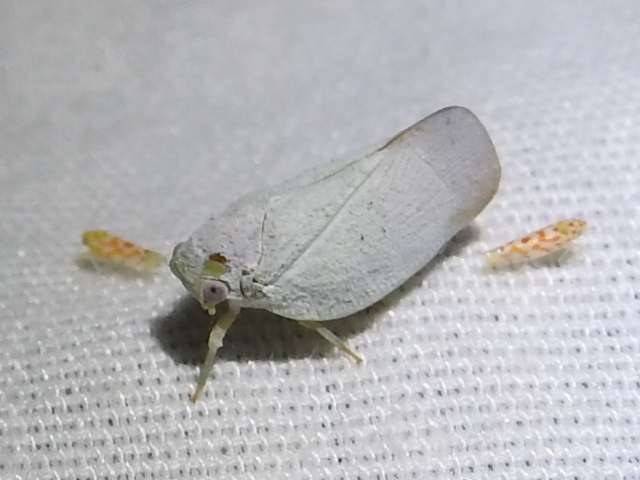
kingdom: Animalia
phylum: Arthropoda
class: Insecta
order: Hemiptera
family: Flatidae
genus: Flatormenis
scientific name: Flatormenis saucia
